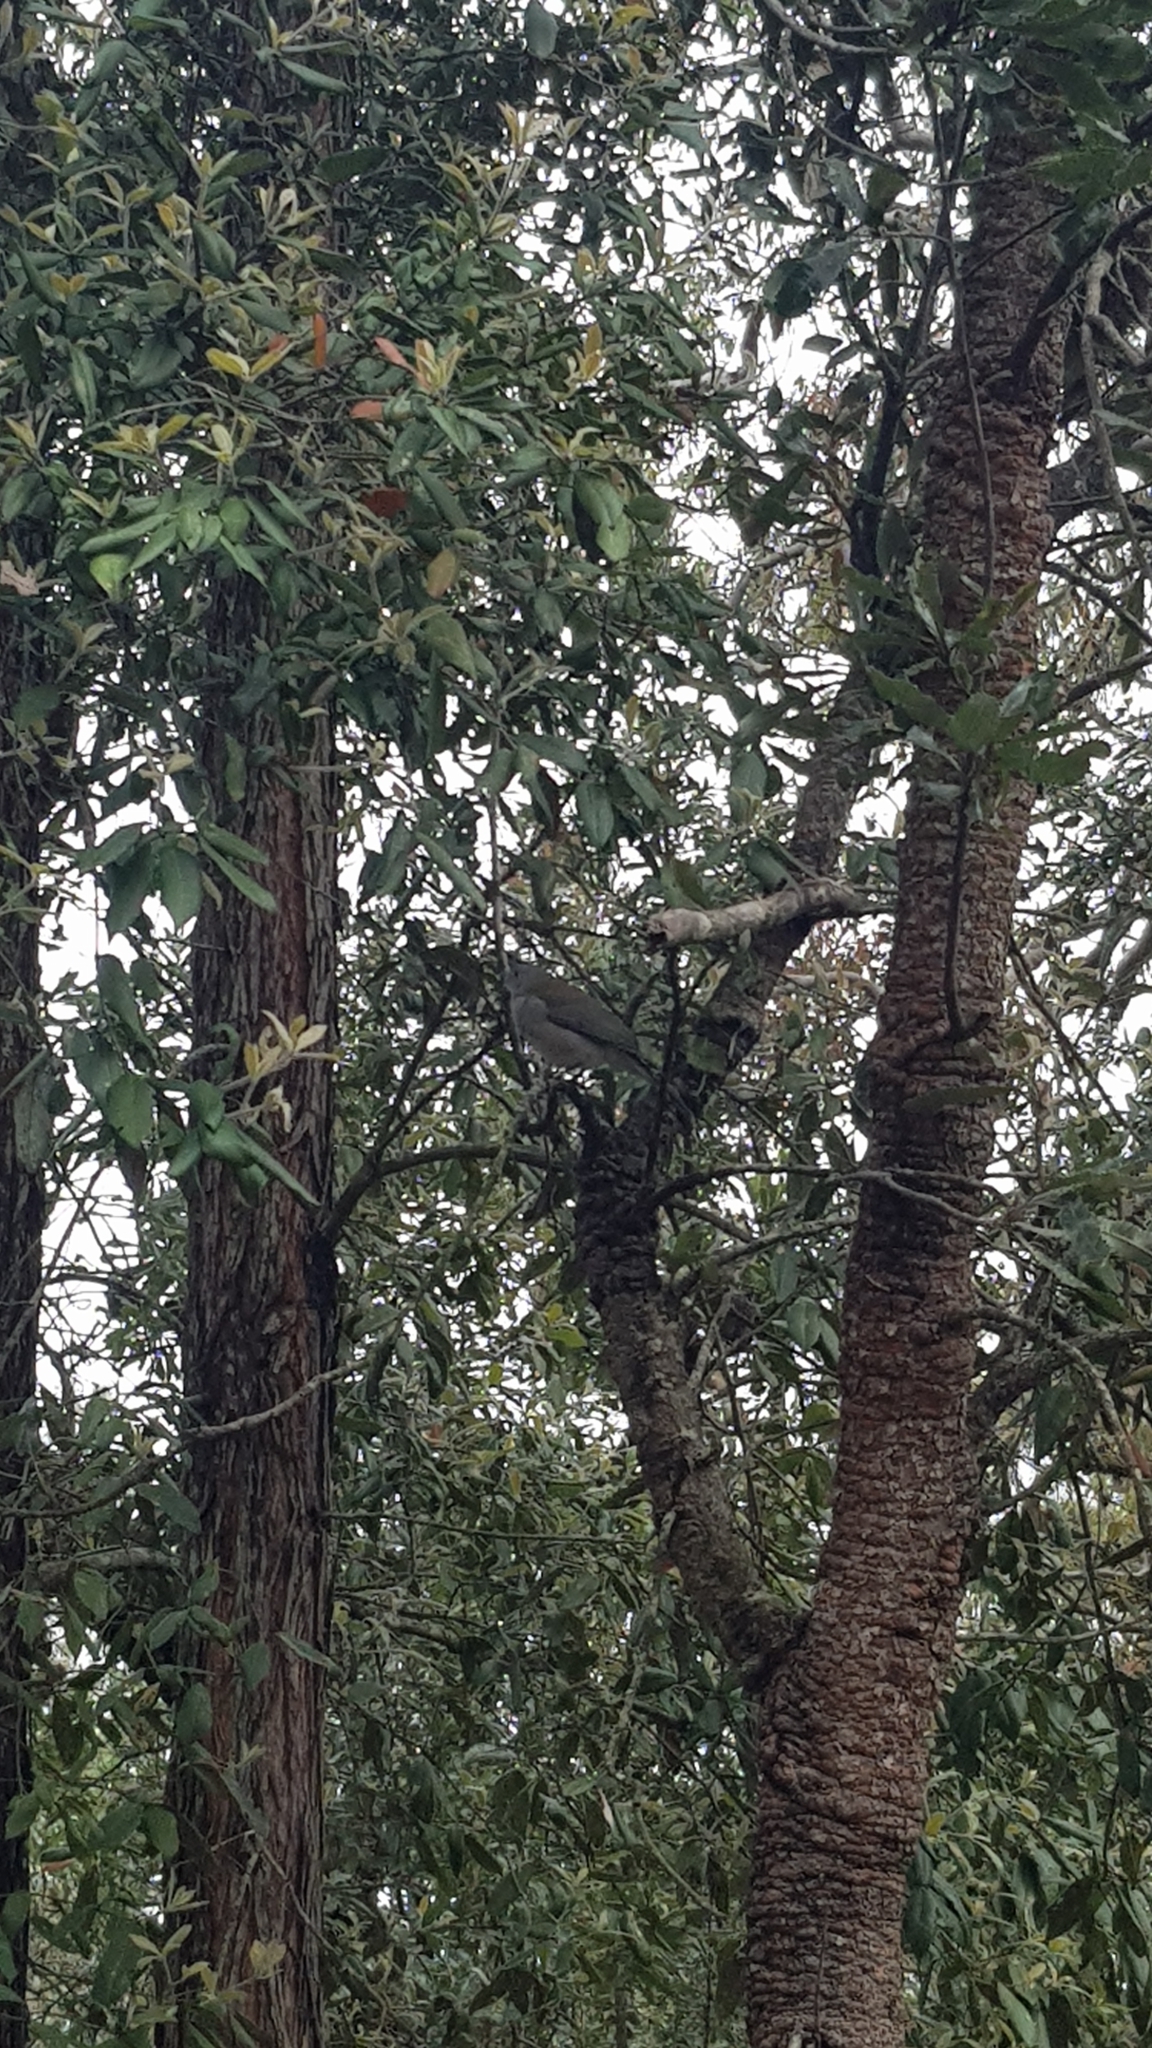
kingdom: Animalia
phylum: Chordata
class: Aves
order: Passeriformes
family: Pachycephalidae
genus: Colluricincla
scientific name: Colluricincla harmonica
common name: Grey shrikethrush
